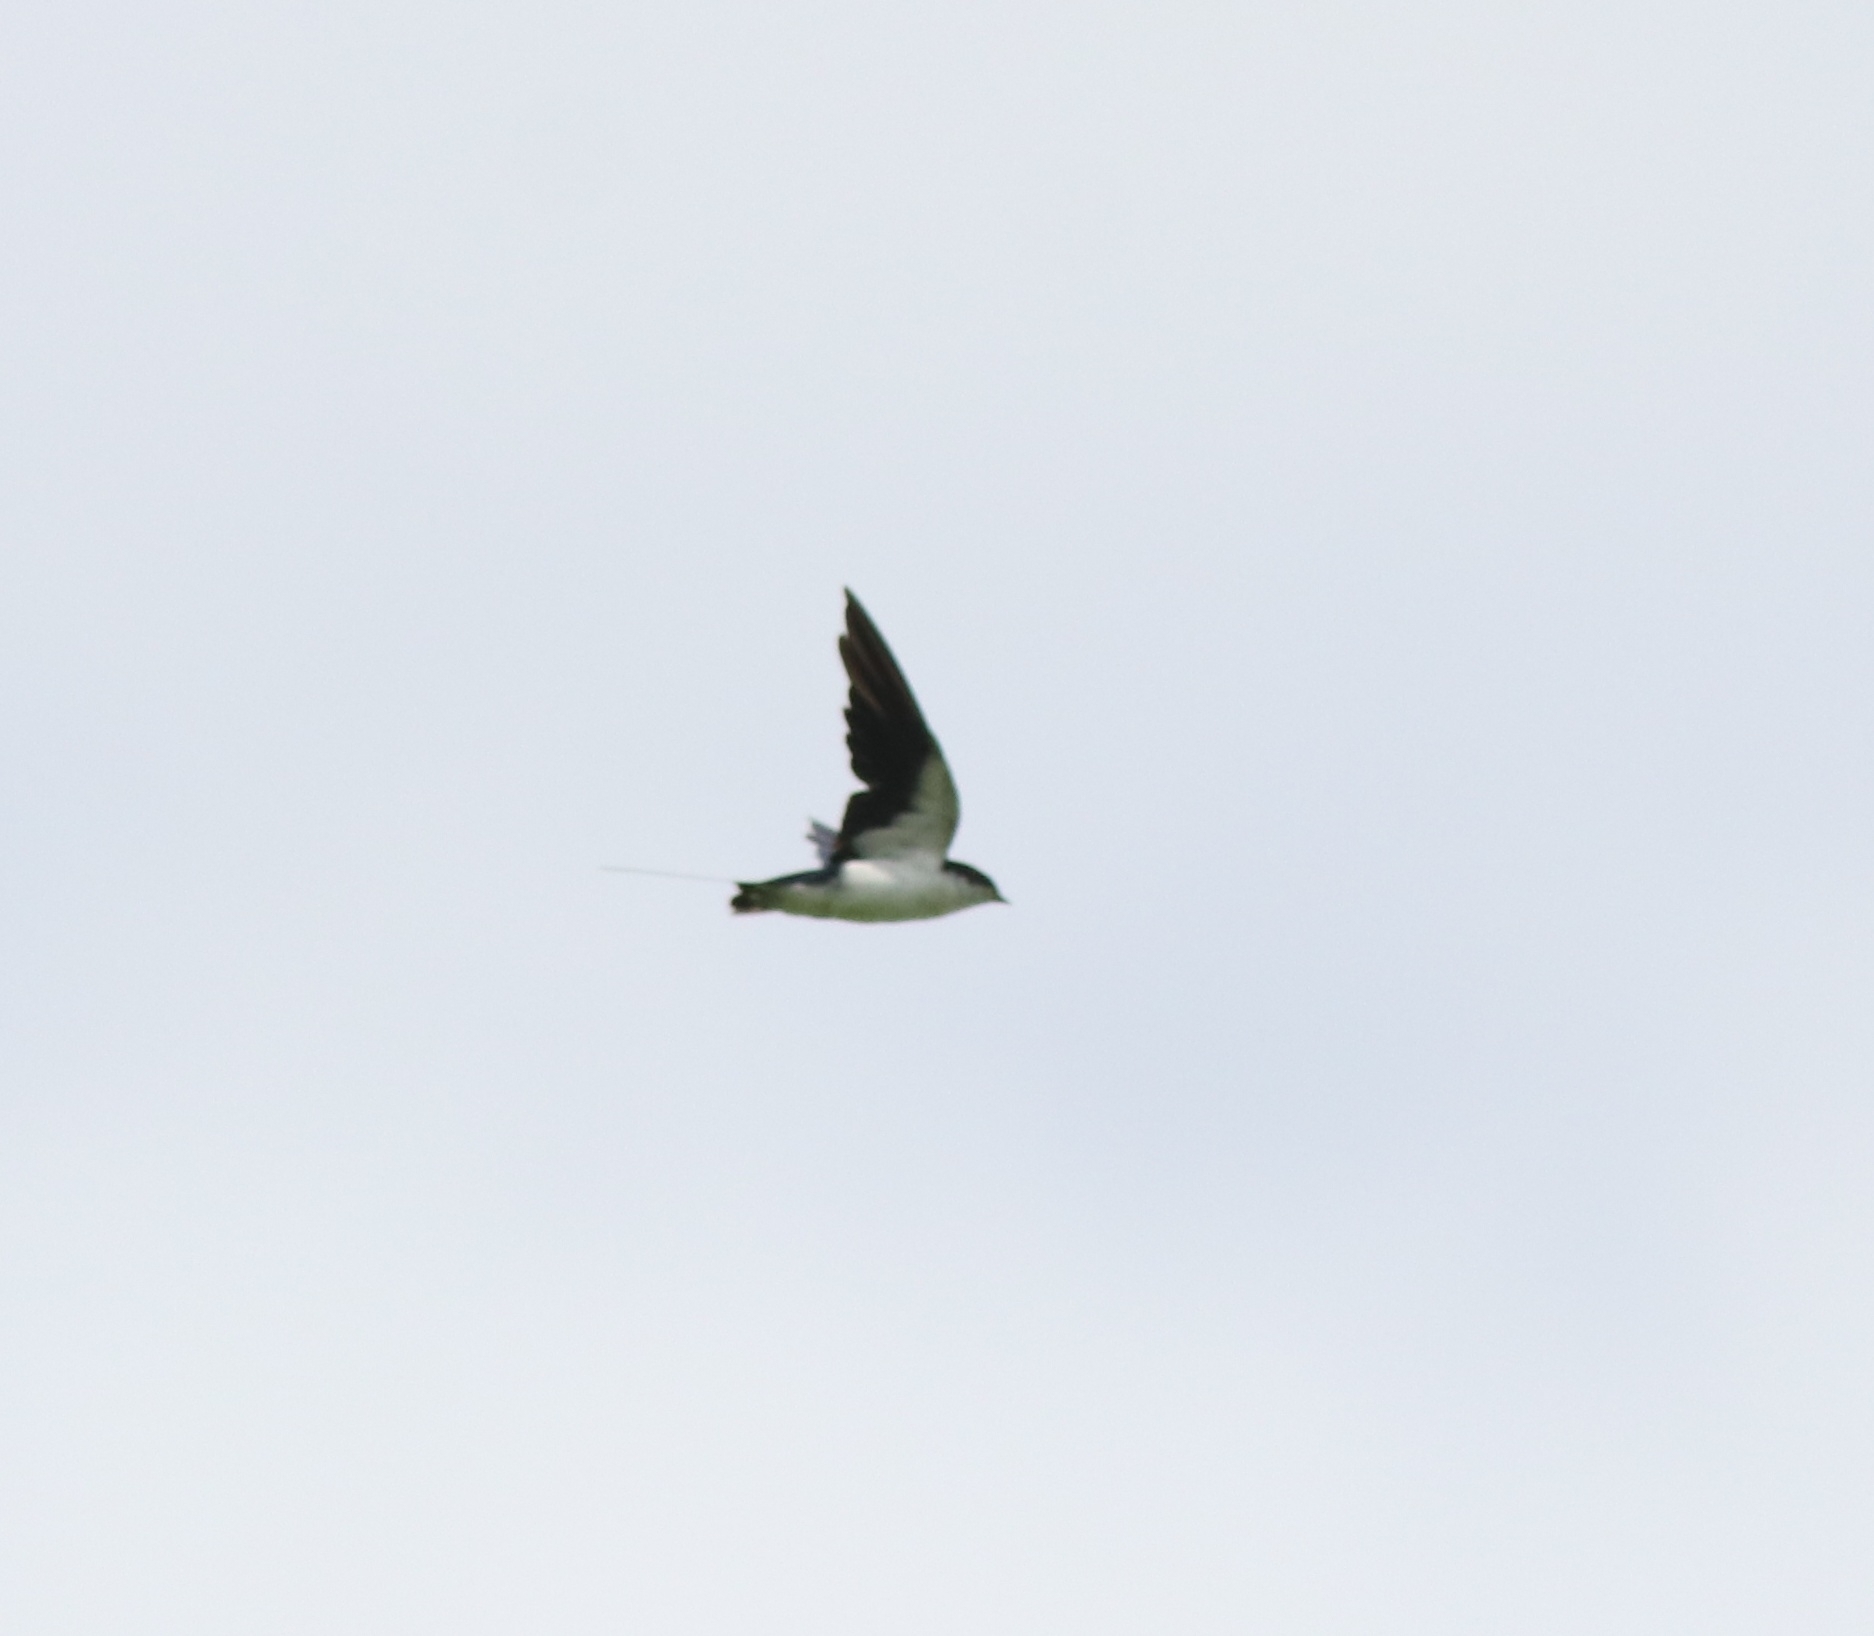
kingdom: Animalia
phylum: Chordata
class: Aves
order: Passeriformes
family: Hirundinidae
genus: Hirundo
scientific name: Hirundo smithii
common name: Wire-tailed swallow
